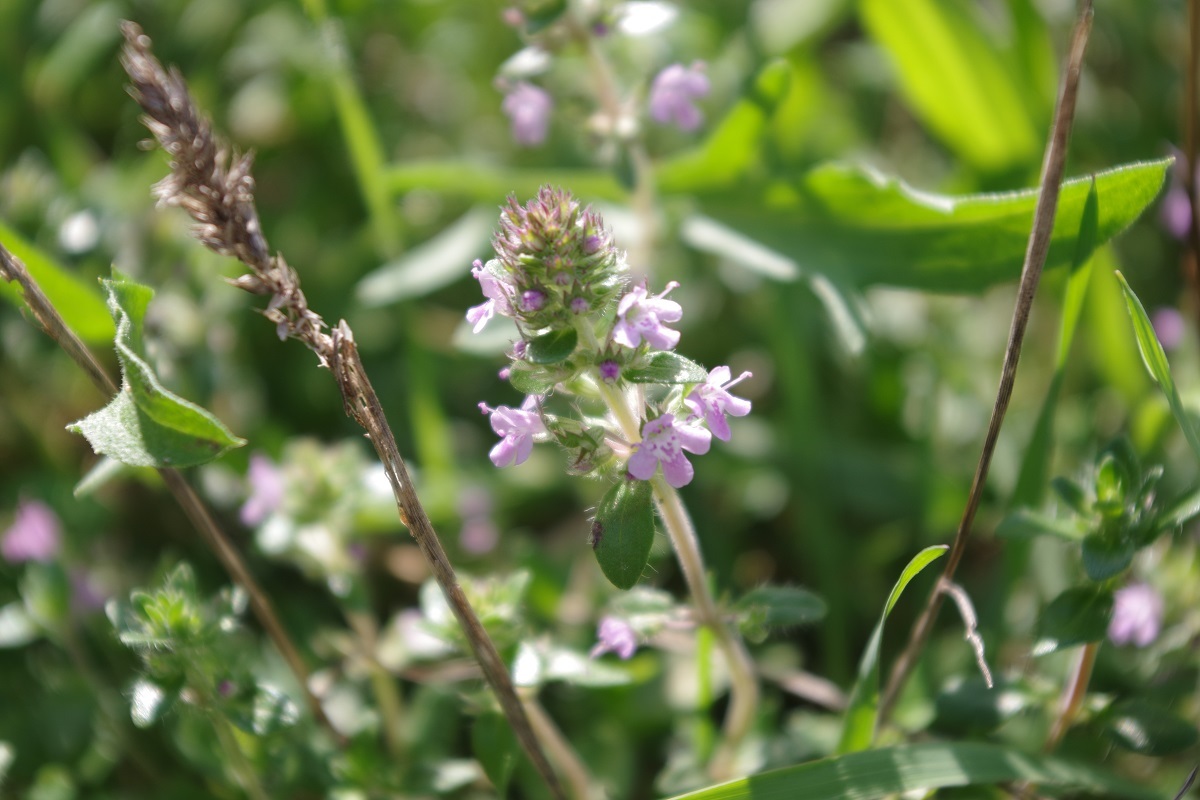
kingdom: Plantae
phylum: Tracheophyta
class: Magnoliopsida
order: Lamiales
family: Lamiaceae
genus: Thymus
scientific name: Thymus pulegioides
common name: Large thyme
